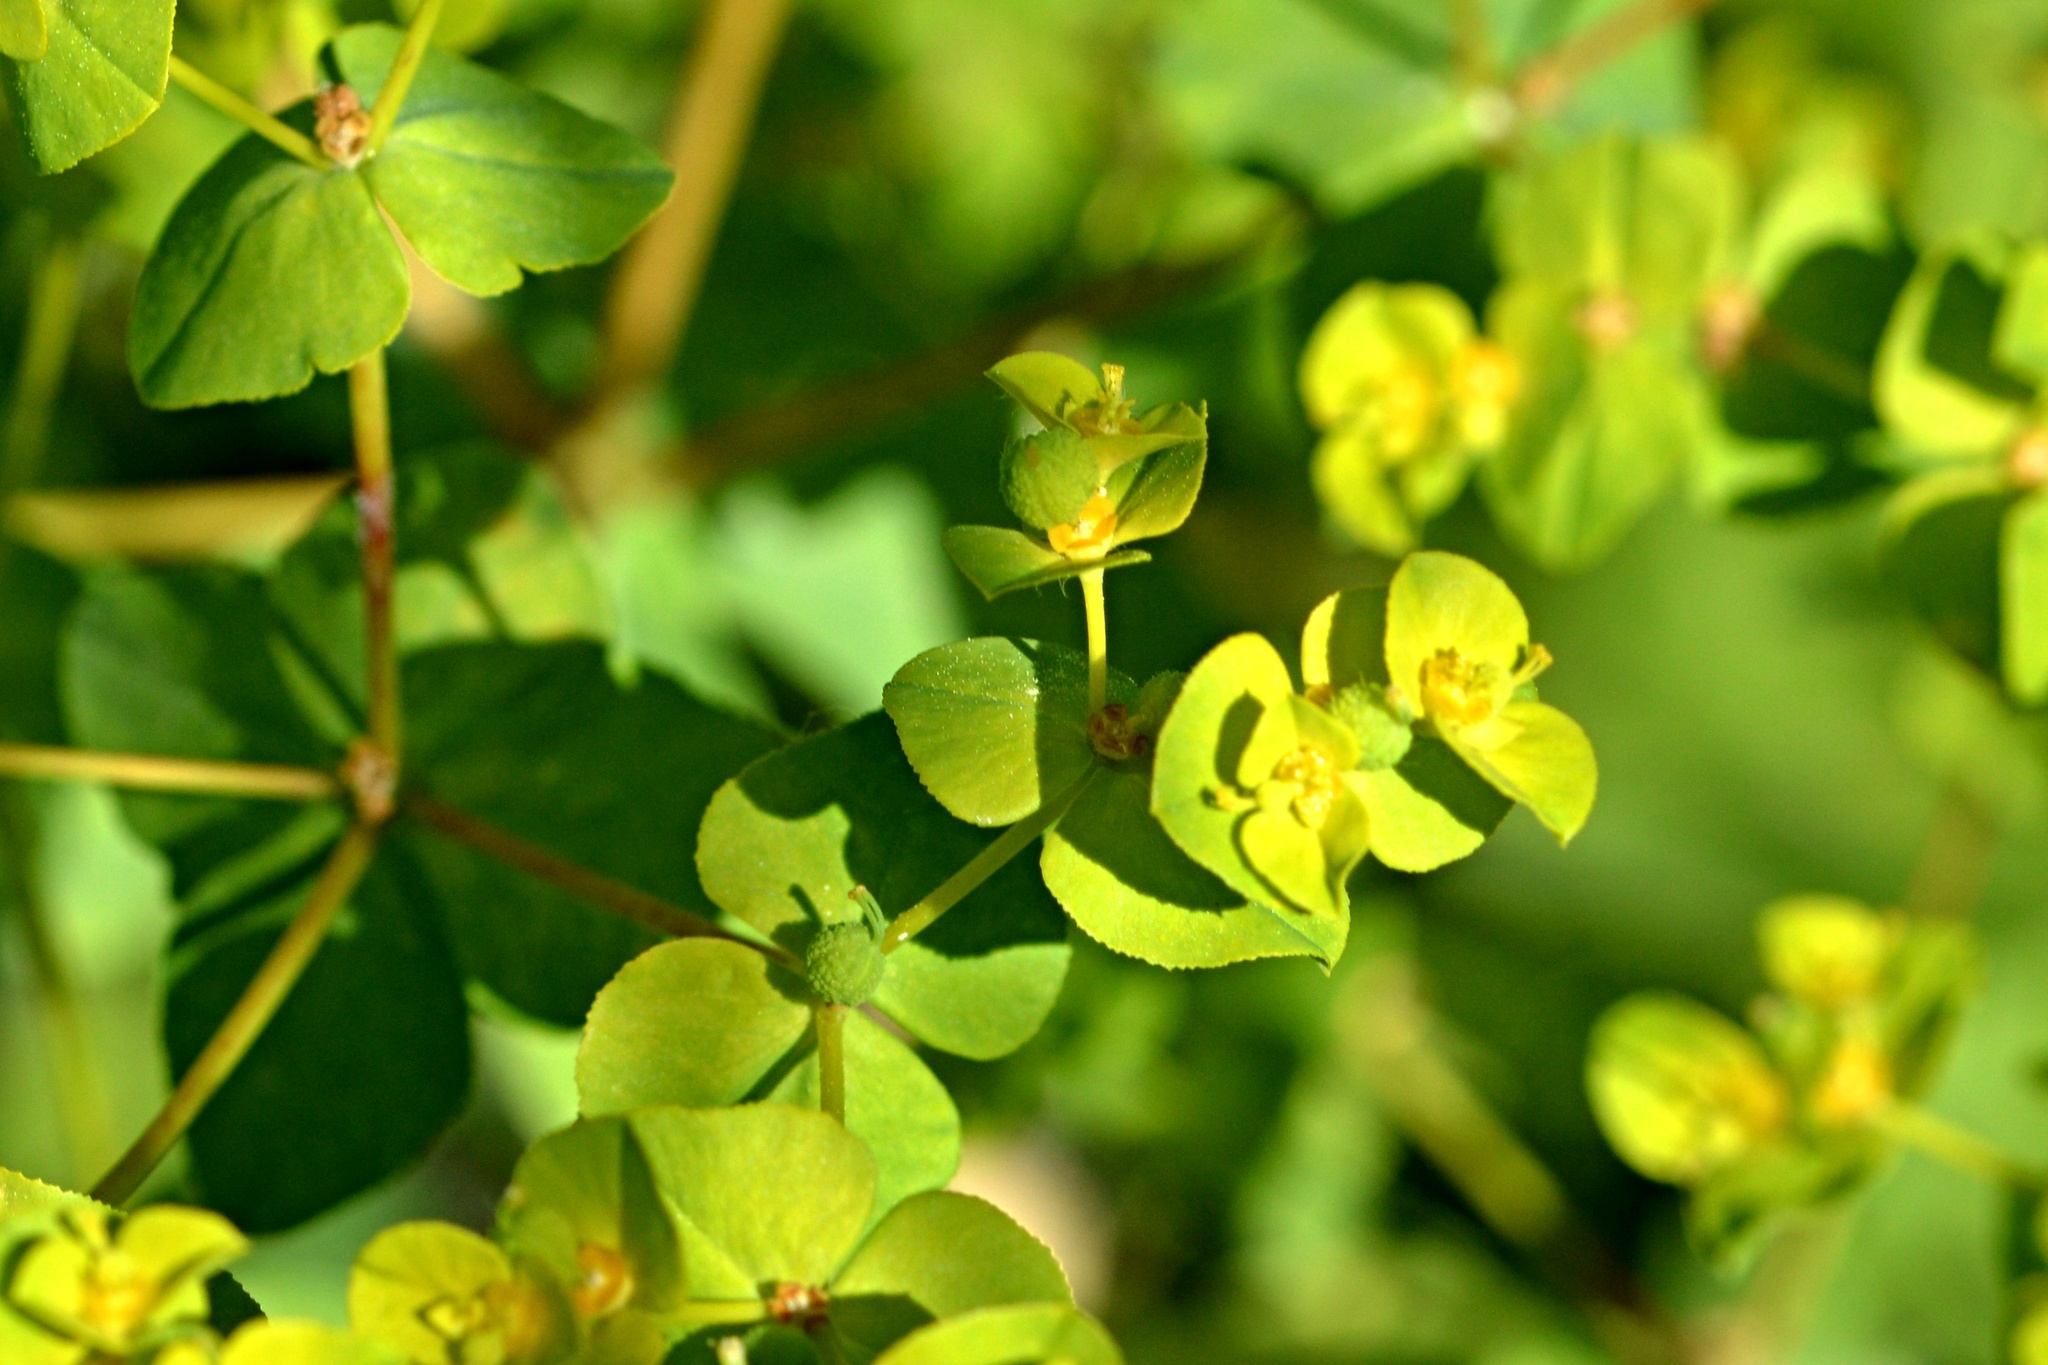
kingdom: Plantae
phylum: Tracheophyta
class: Magnoliopsida
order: Malpighiales
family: Euphorbiaceae
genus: Euphorbia
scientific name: Euphorbia platyphyllos
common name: Broad-leaved spurge
